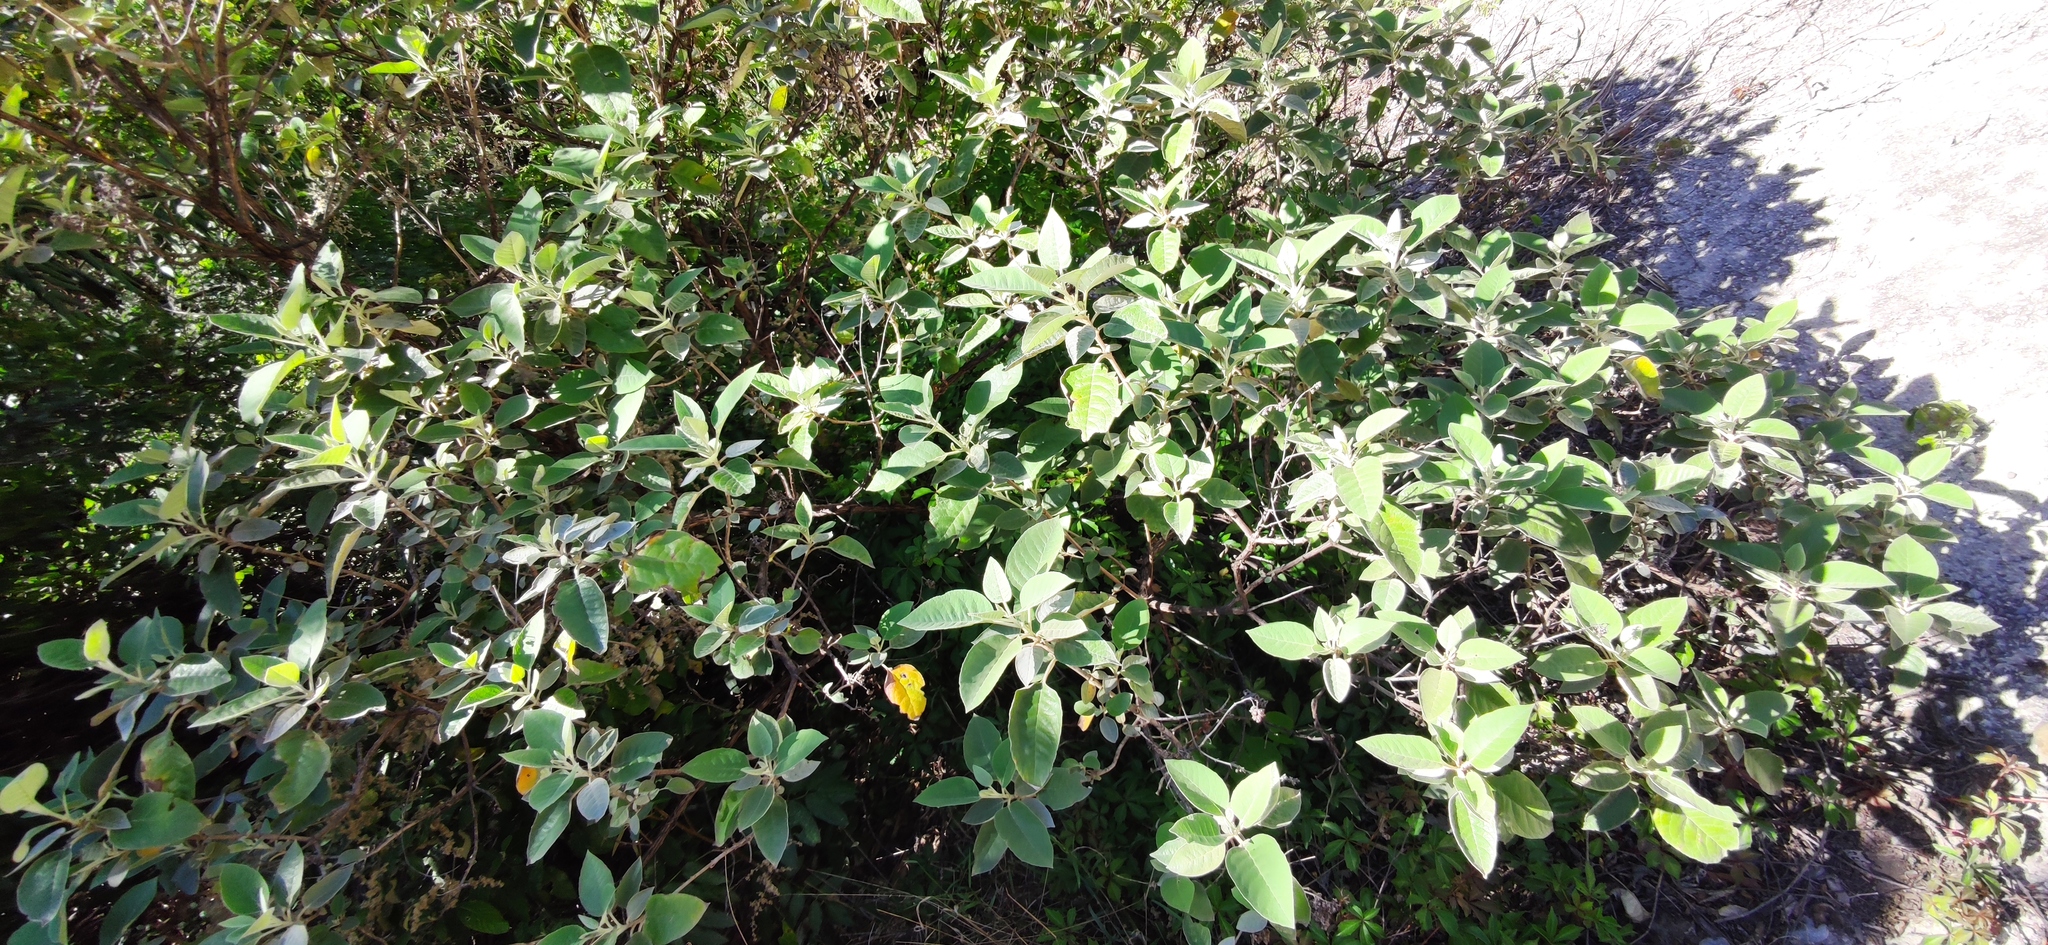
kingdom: Plantae
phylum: Tracheophyta
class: Magnoliopsida
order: Lamiales
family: Scrophulariaceae
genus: Buddleja
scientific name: Buddleja cordata
